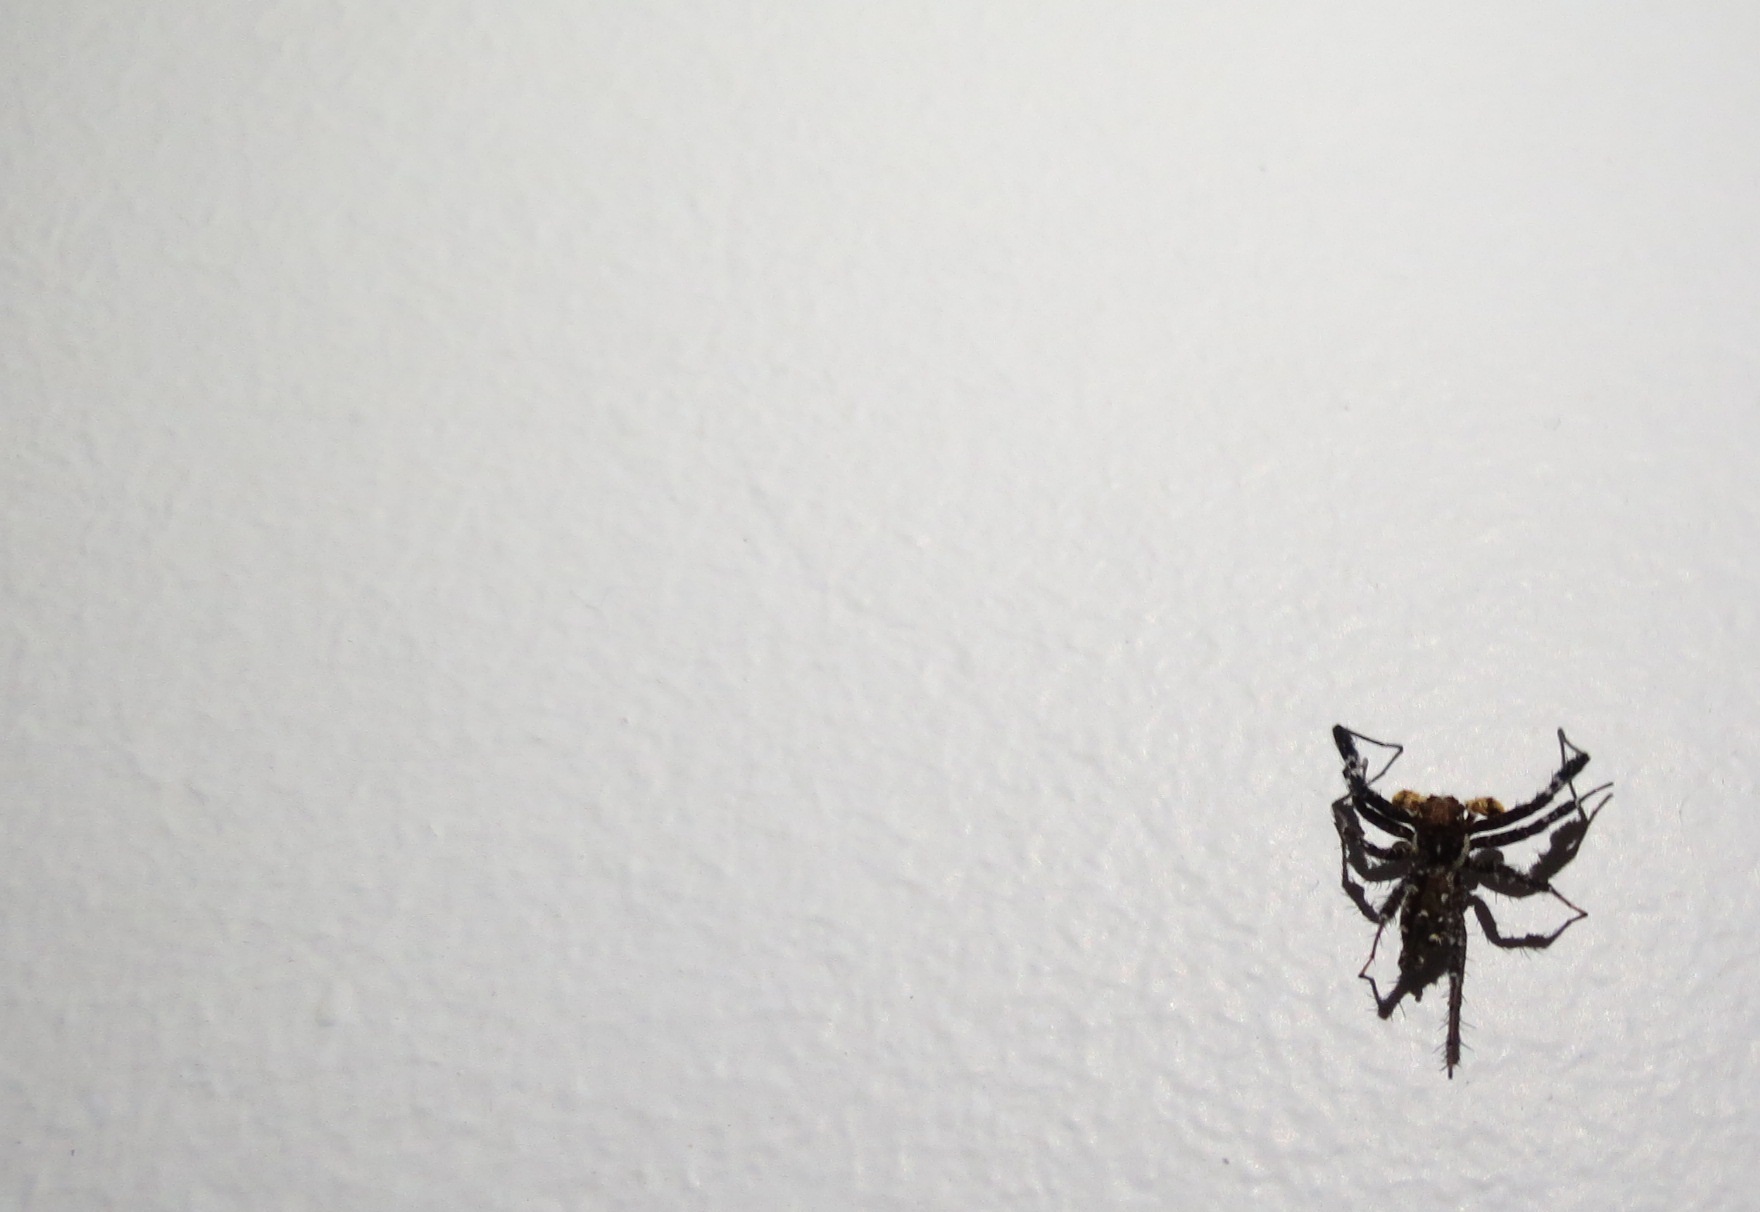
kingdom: Animalia
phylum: Arthropoda
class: Arachnida
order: Araneae
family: Salticidae
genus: Portia
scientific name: Portia schultzi
